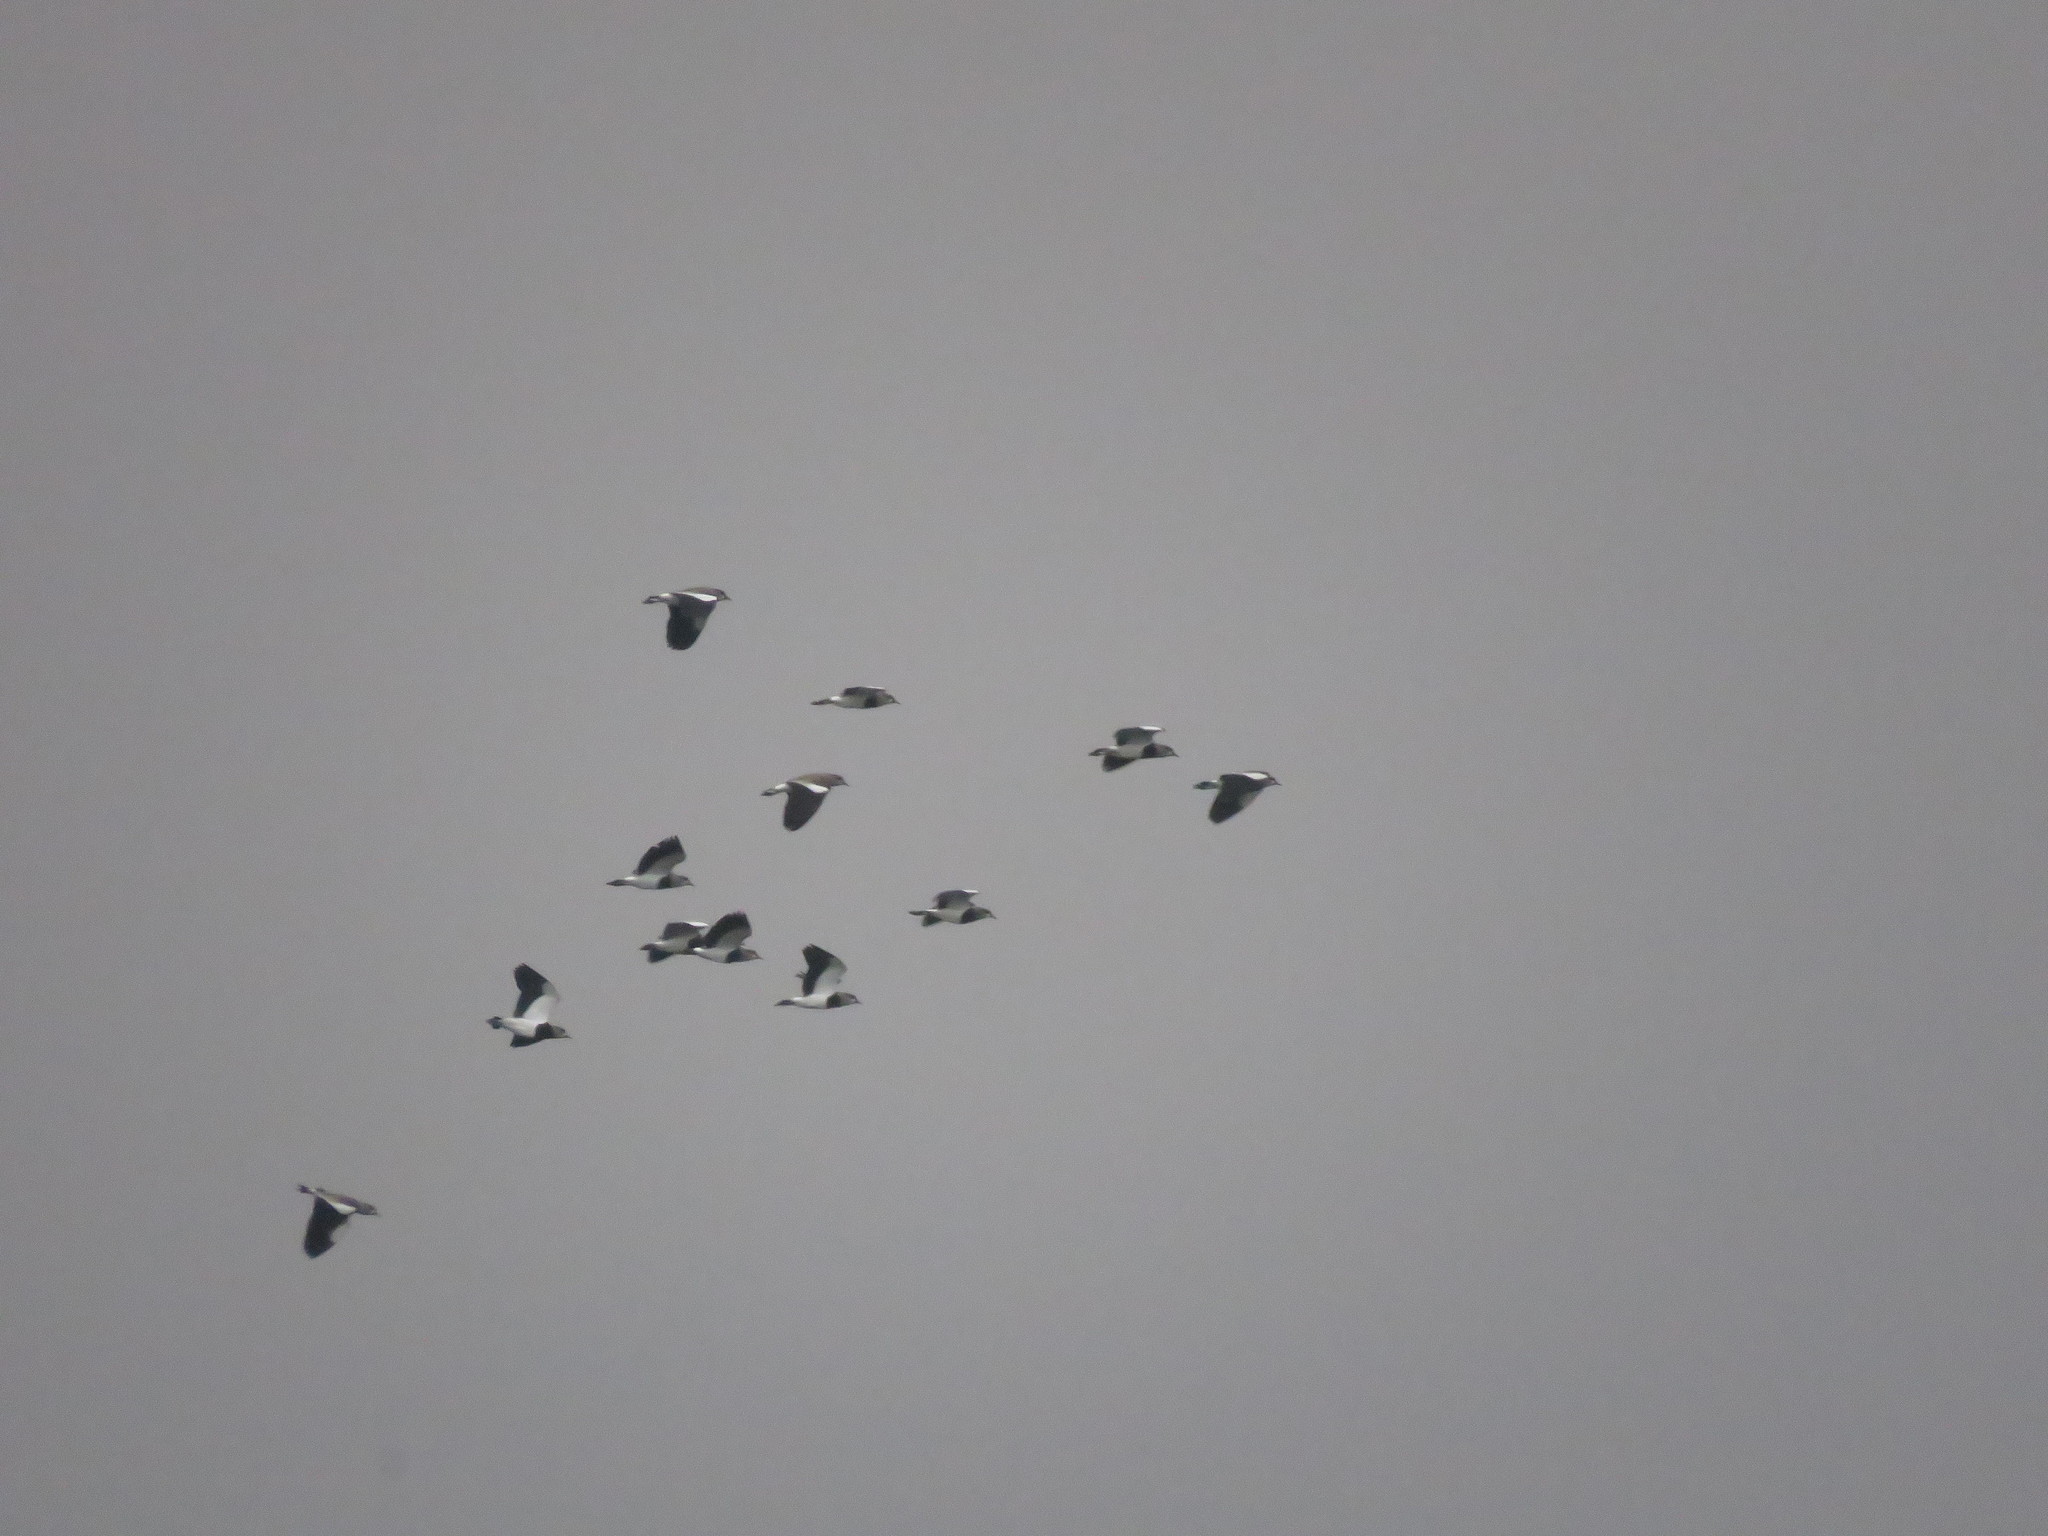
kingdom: Animalia
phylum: Chordata
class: Aves
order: Charadriiformes
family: Charadriidae
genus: Vanellus
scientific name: Vanellus chilensis
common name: Southern lapwing
